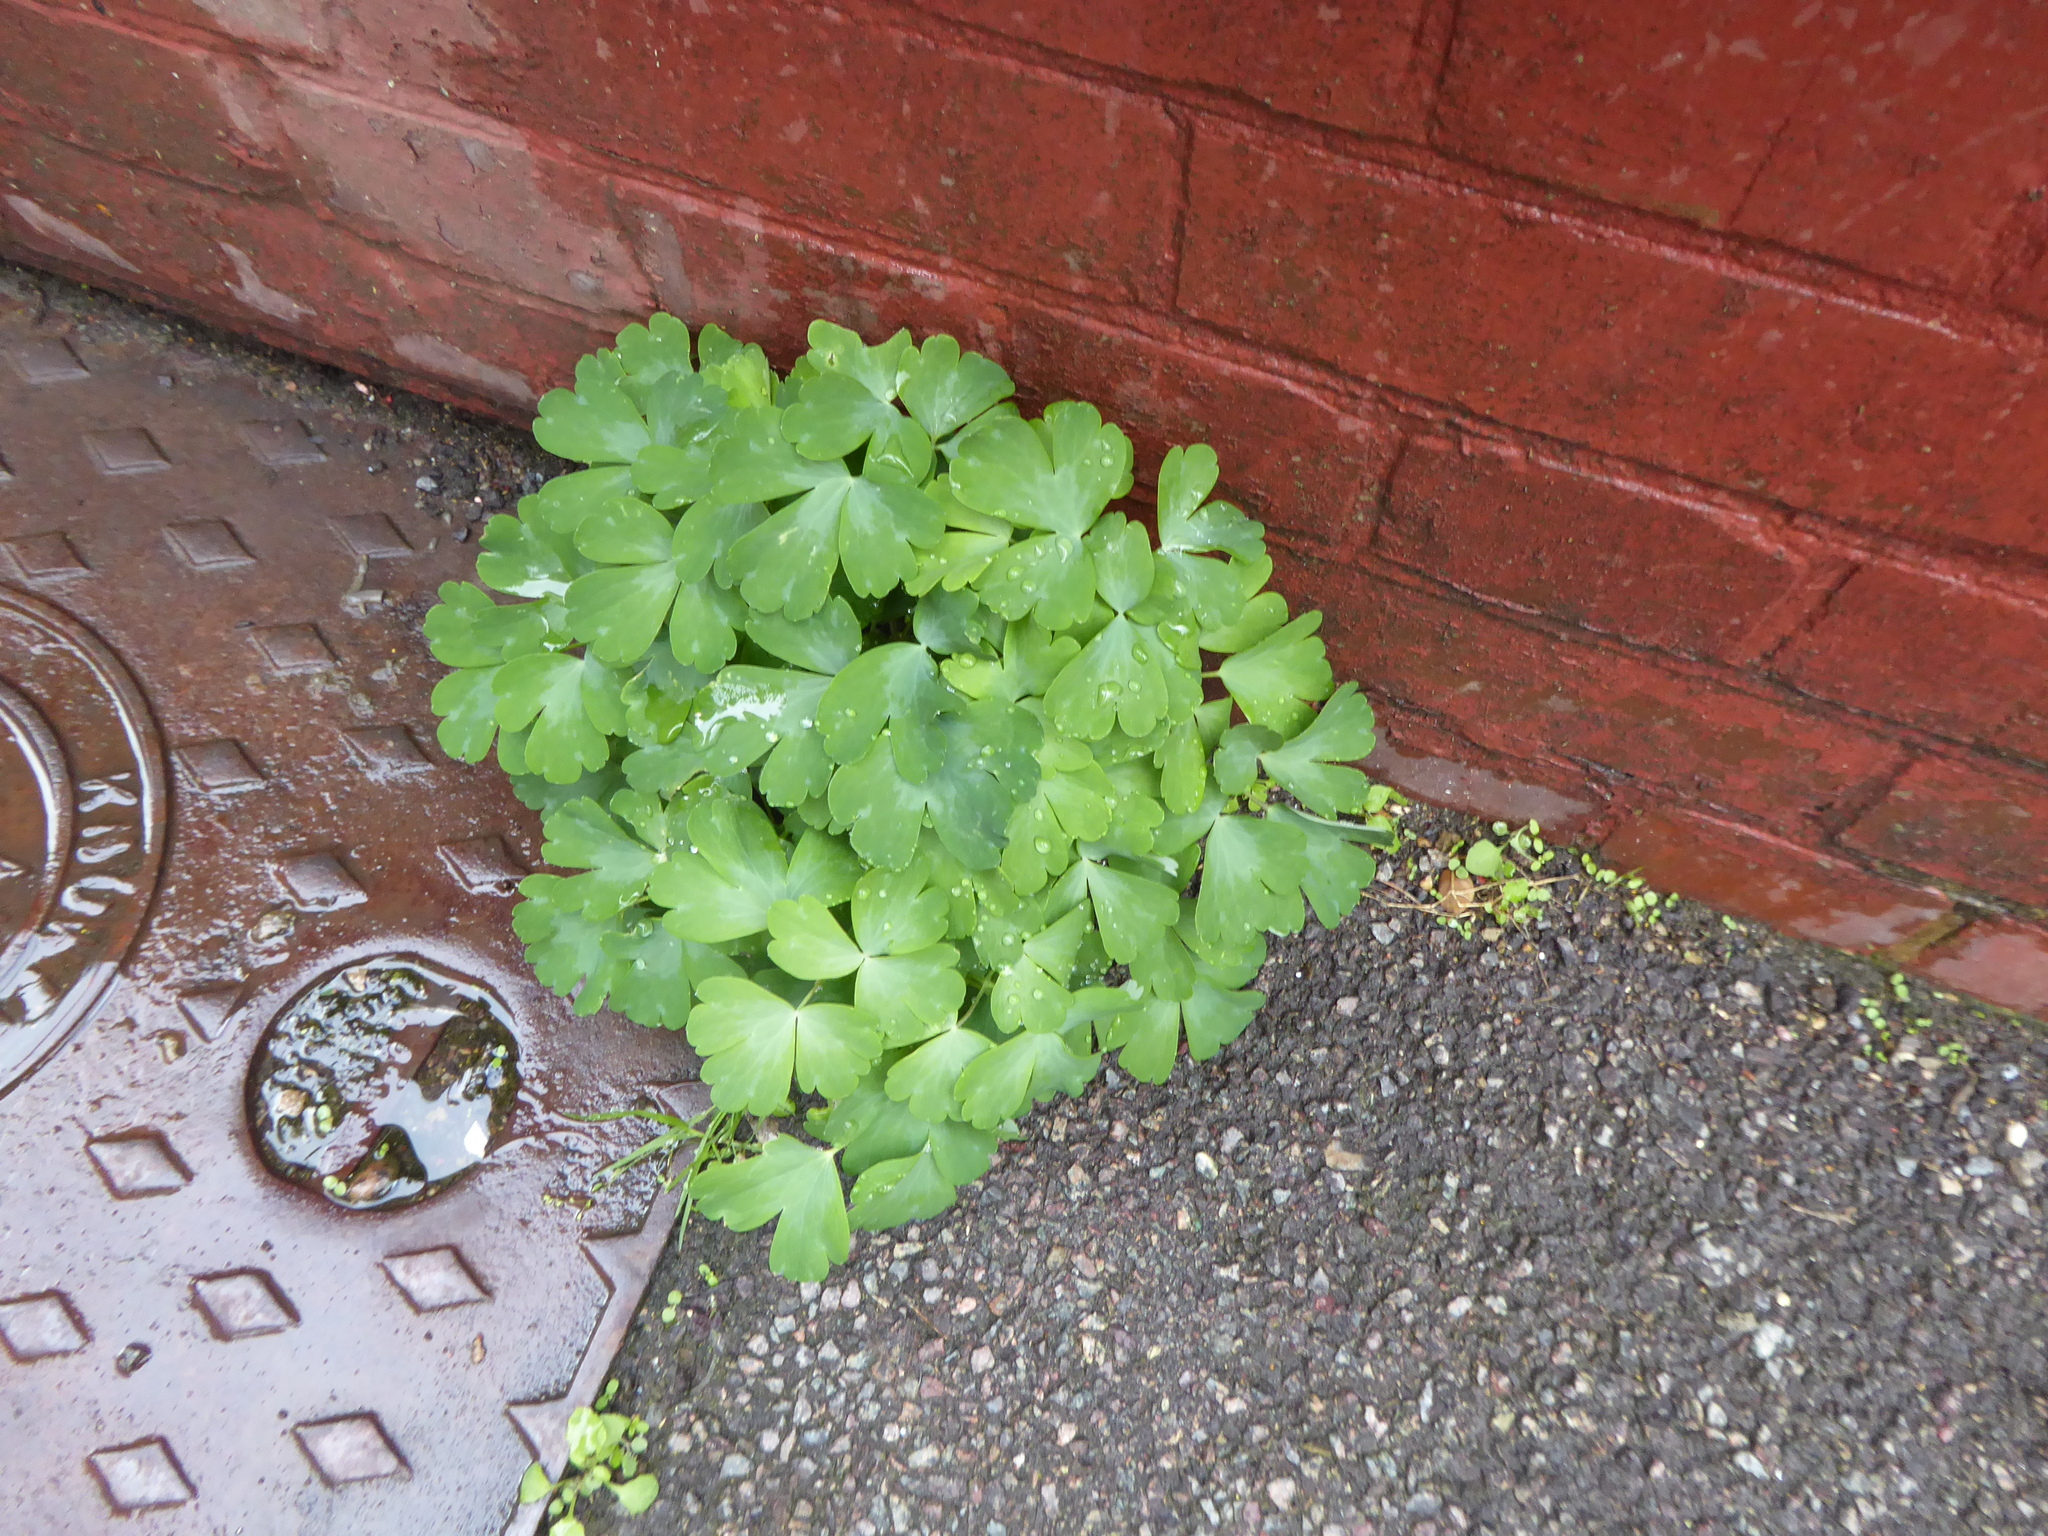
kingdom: Plantae
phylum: Tracheophyta
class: Magnoliopsida
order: Ranunculales
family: Ranunculaceae
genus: Aquilegia
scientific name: Aquilegia
